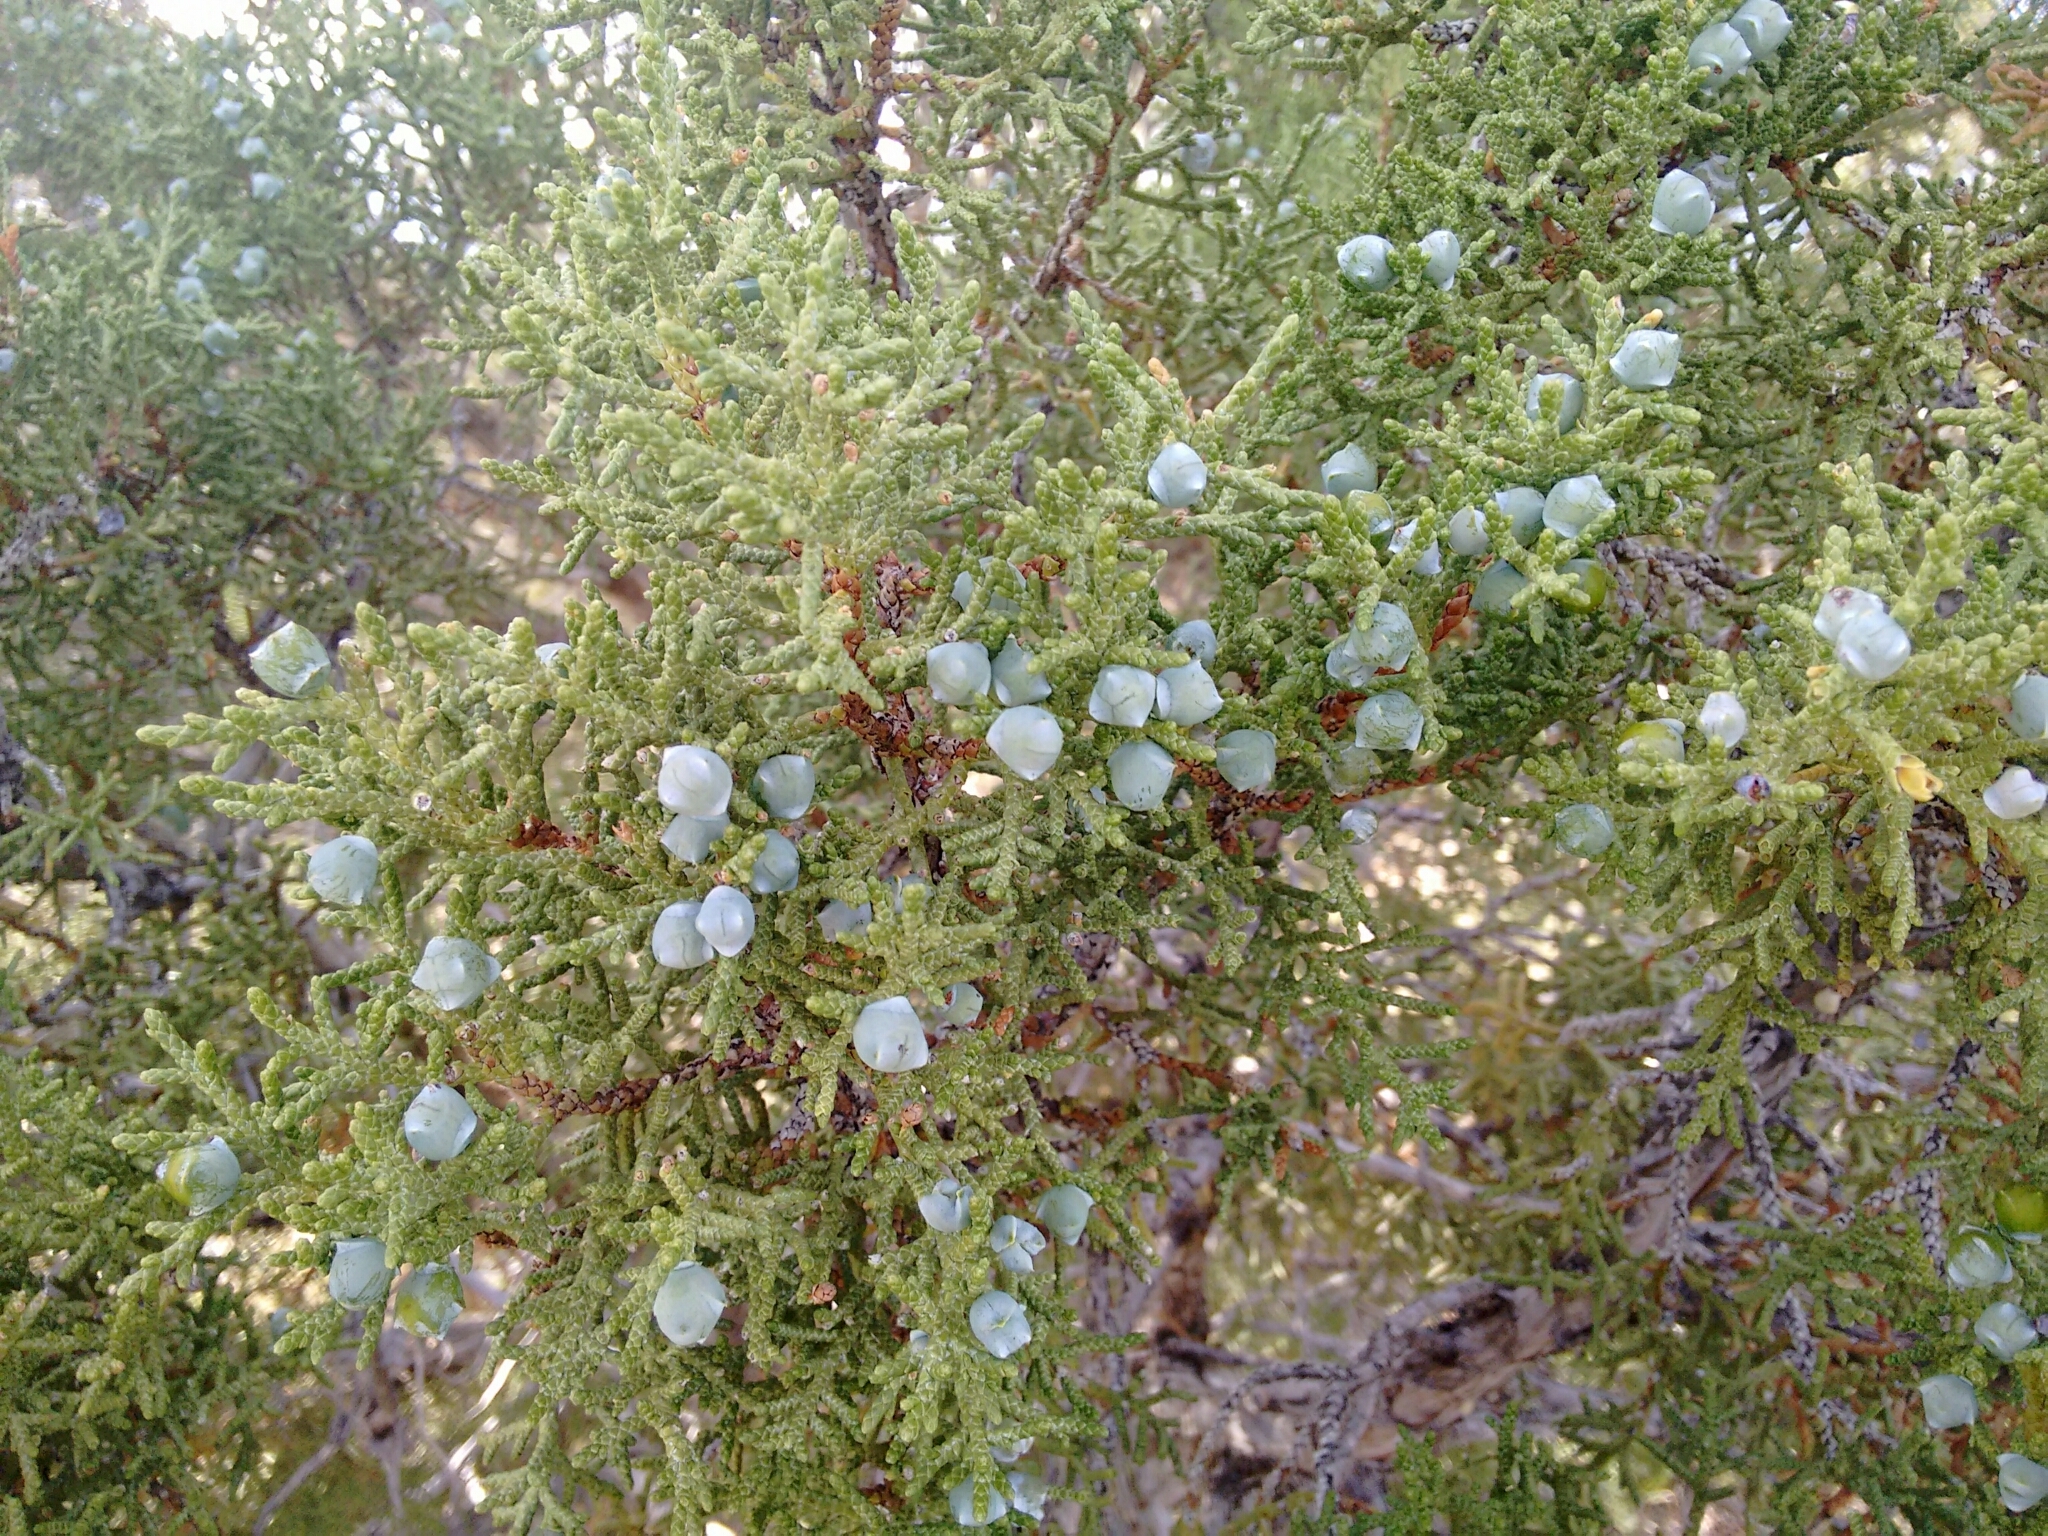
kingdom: Plantae
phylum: Tracheophyta
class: Pinopsida
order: Pinales
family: Cupressaceae
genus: Juniperus
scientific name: Juniperus osteosperma
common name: Utah juniper
